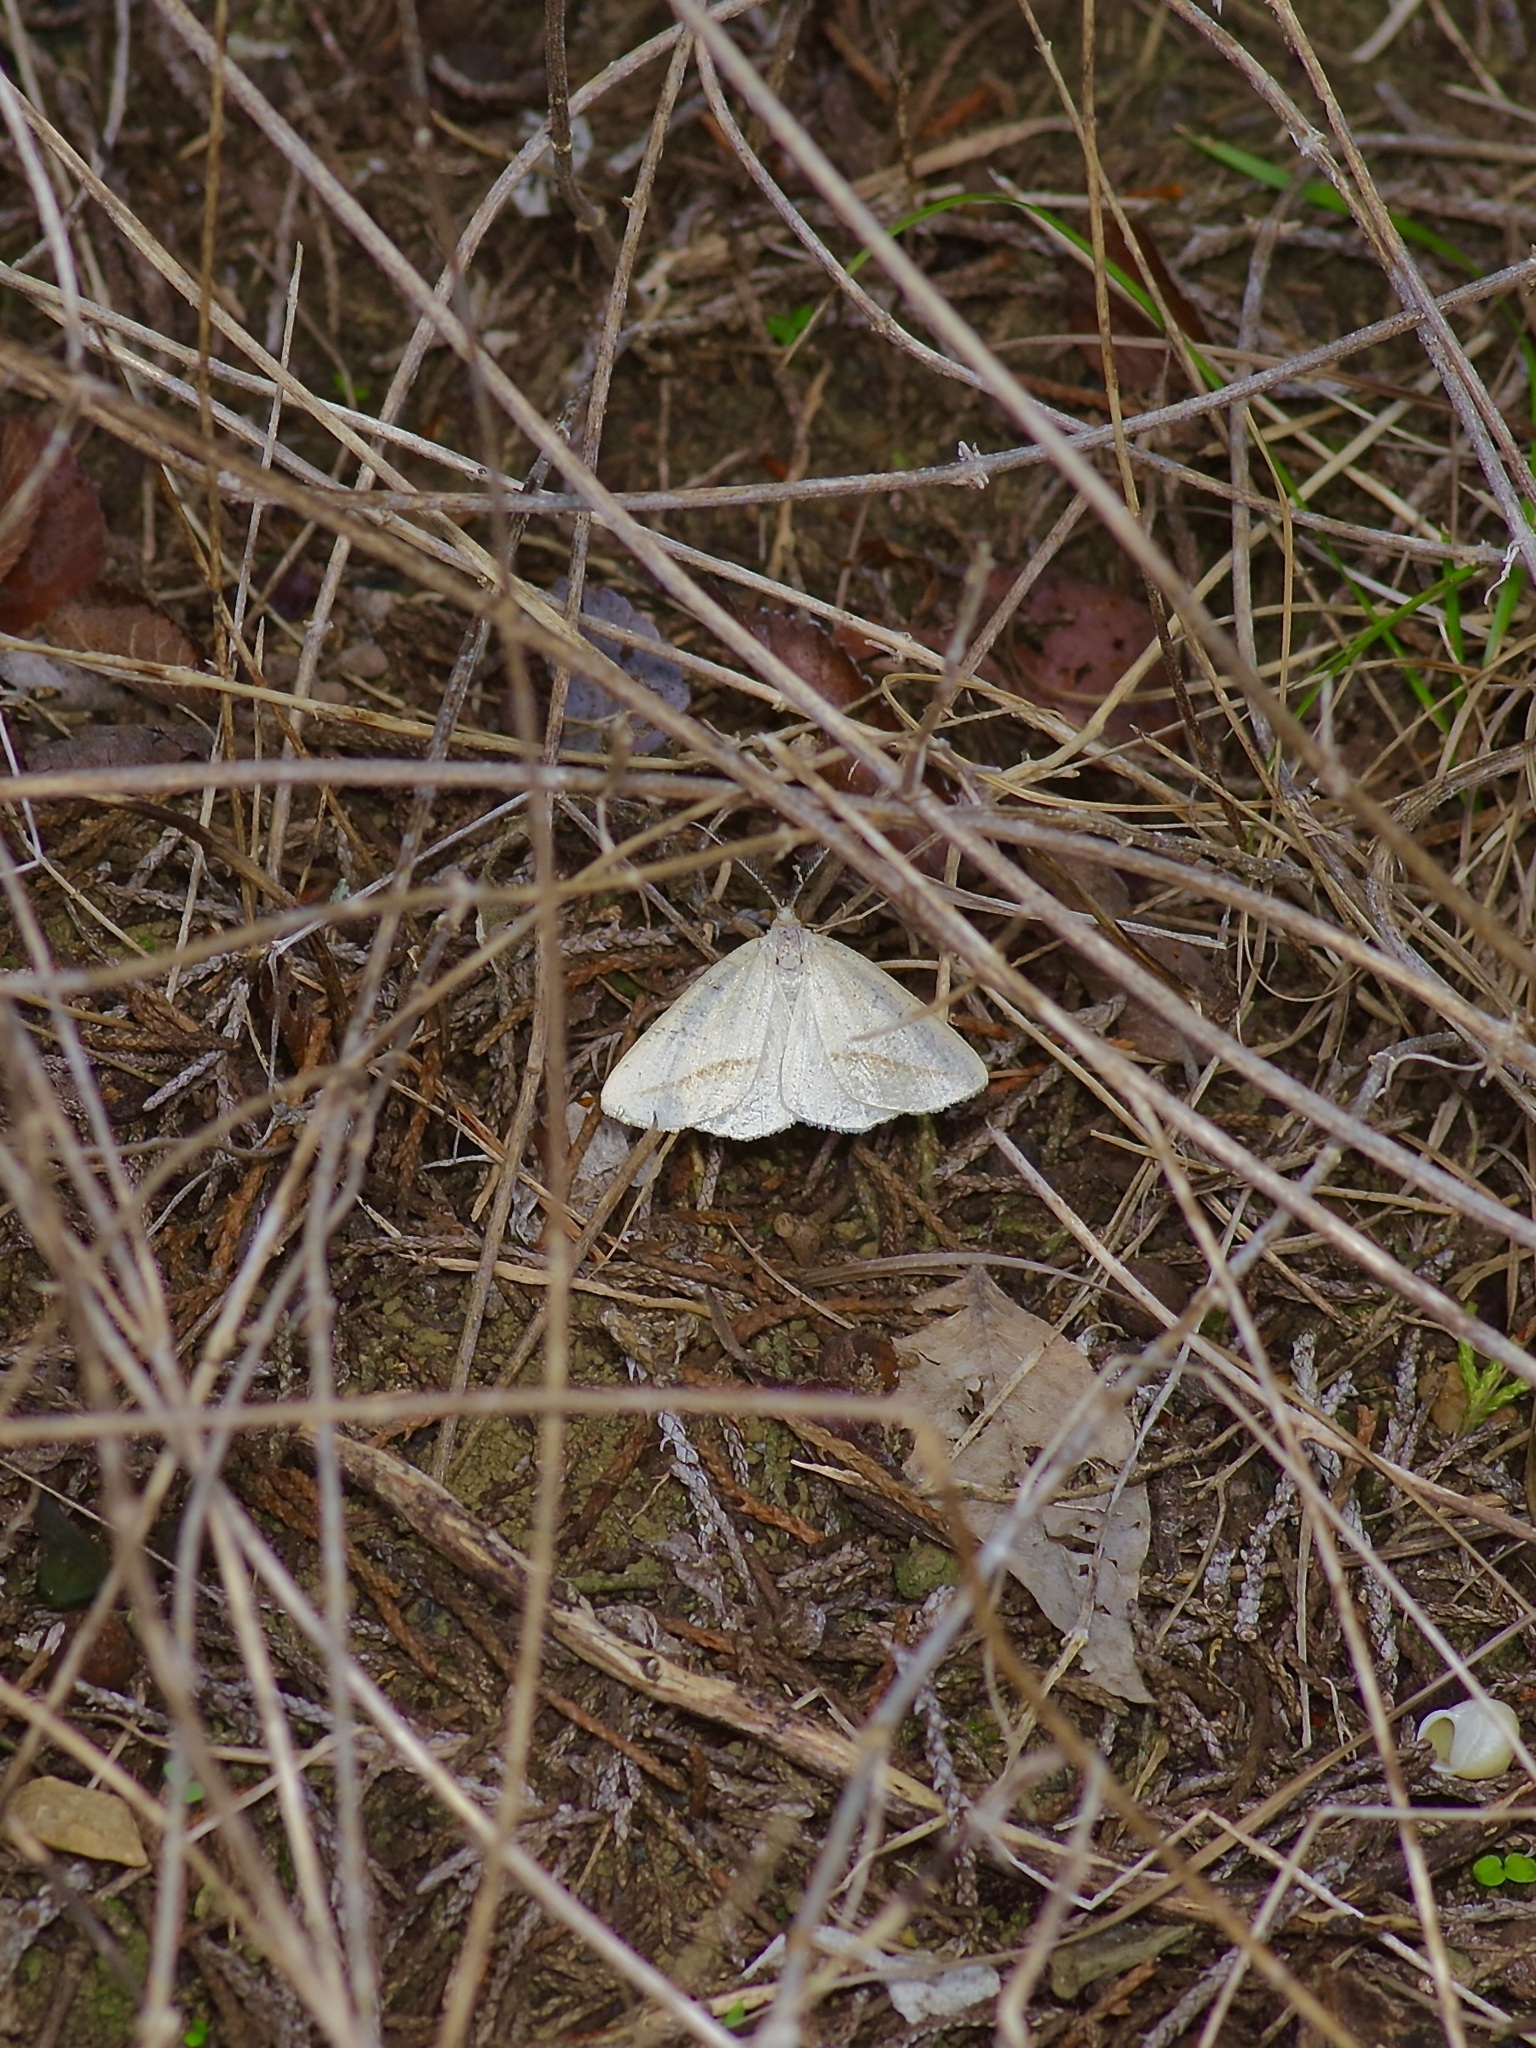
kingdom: Animalia
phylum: Arthropoda
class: Insecta
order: Lepidoptera
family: Geometridae
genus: Lychnosea
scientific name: Lychnosea intermicata
